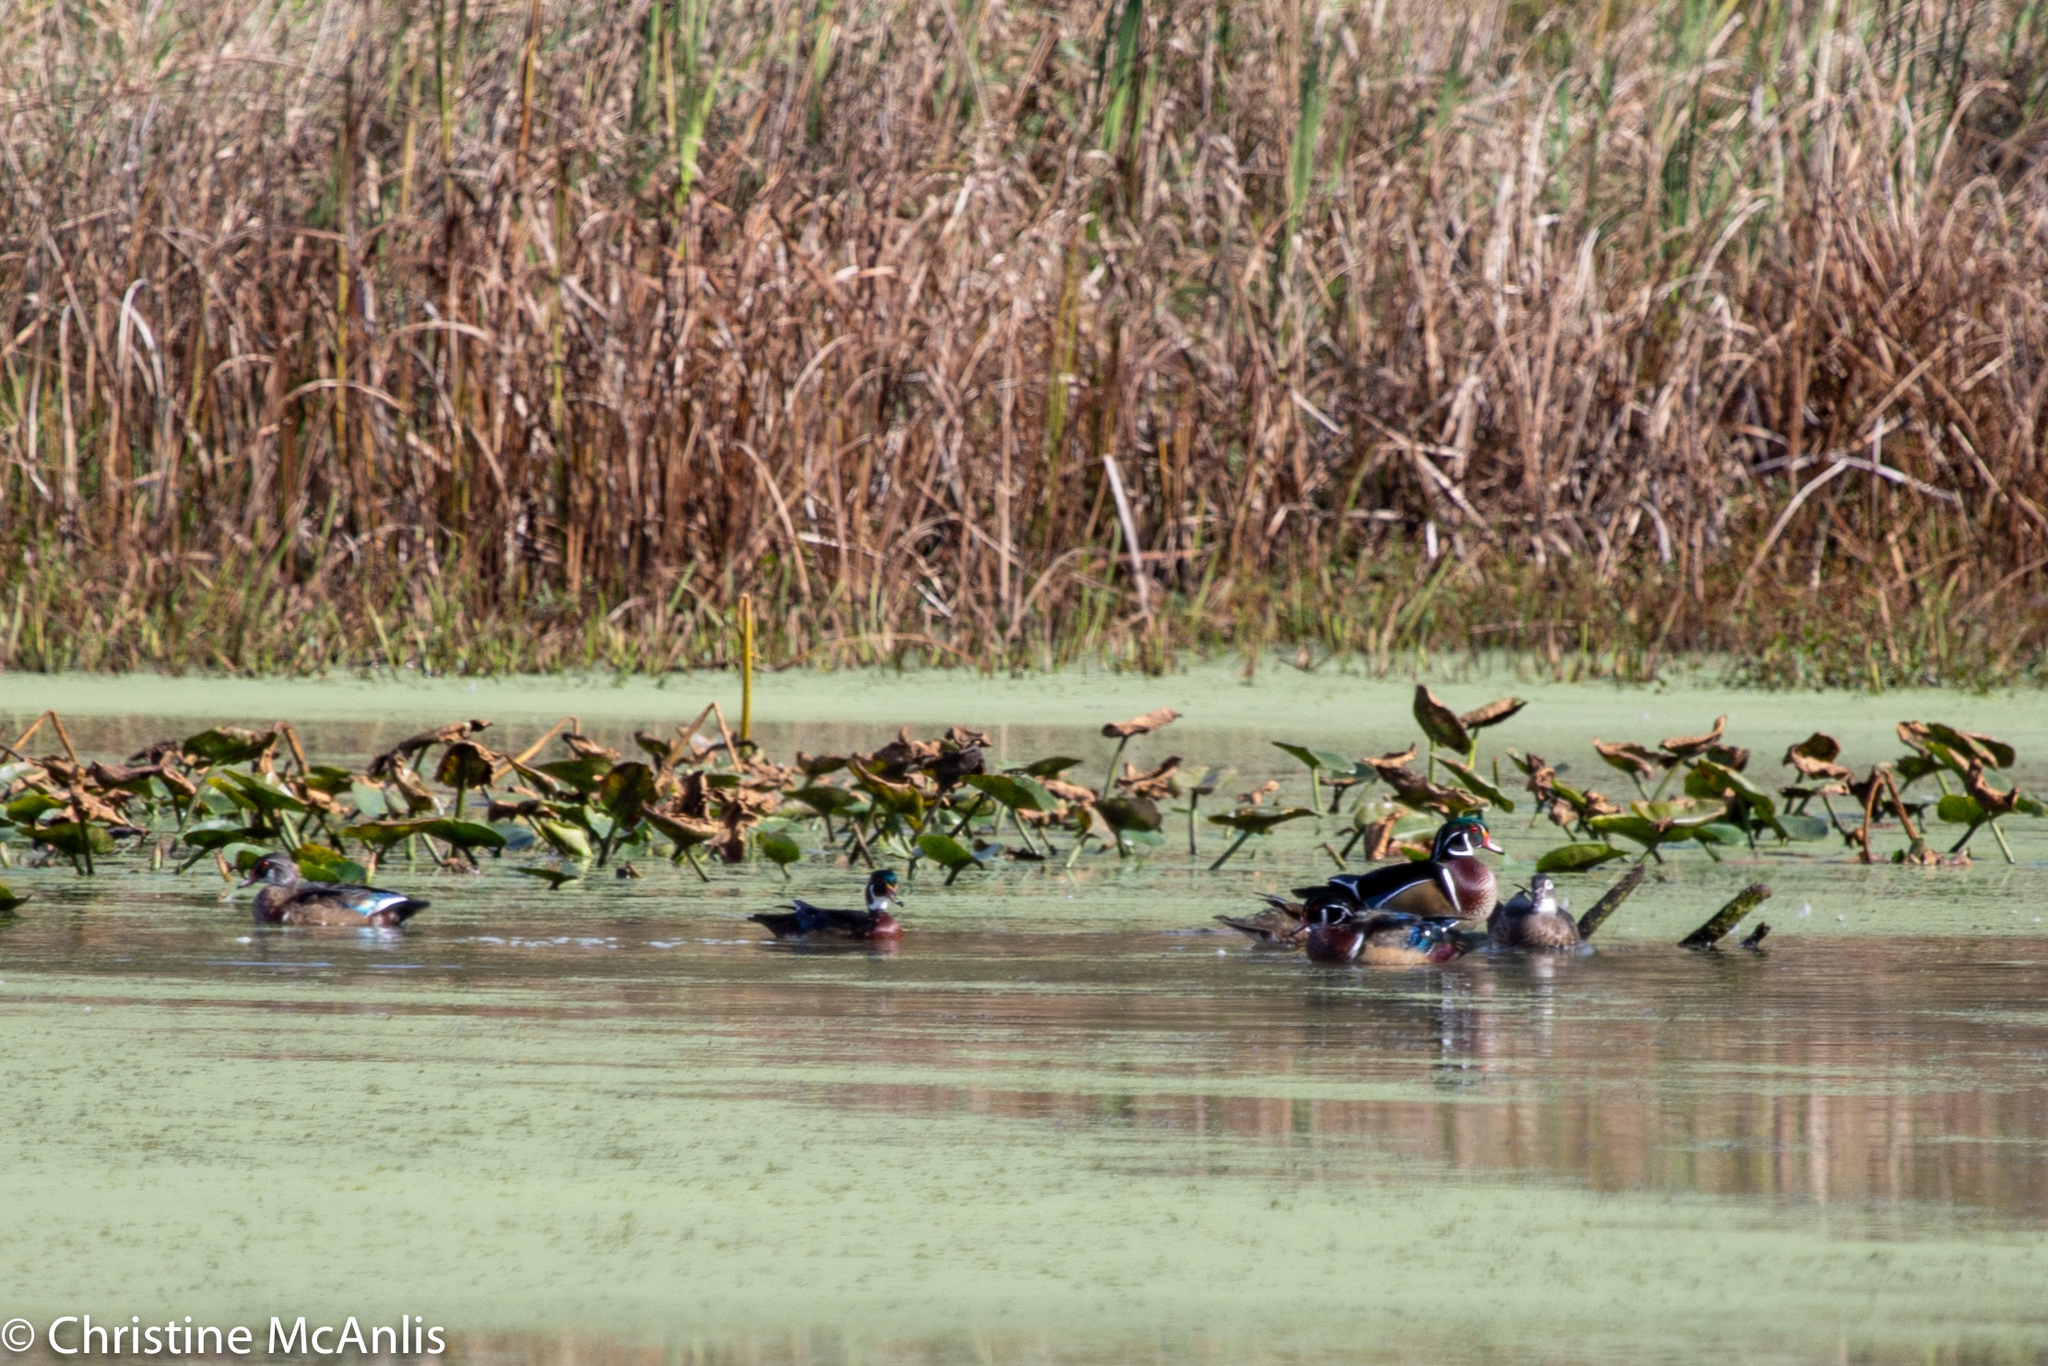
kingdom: Animalia
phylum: Chordata
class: Aves
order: Anseriformes
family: Anatidae
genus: Aix
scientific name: Aix sponsa
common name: Wood duck
